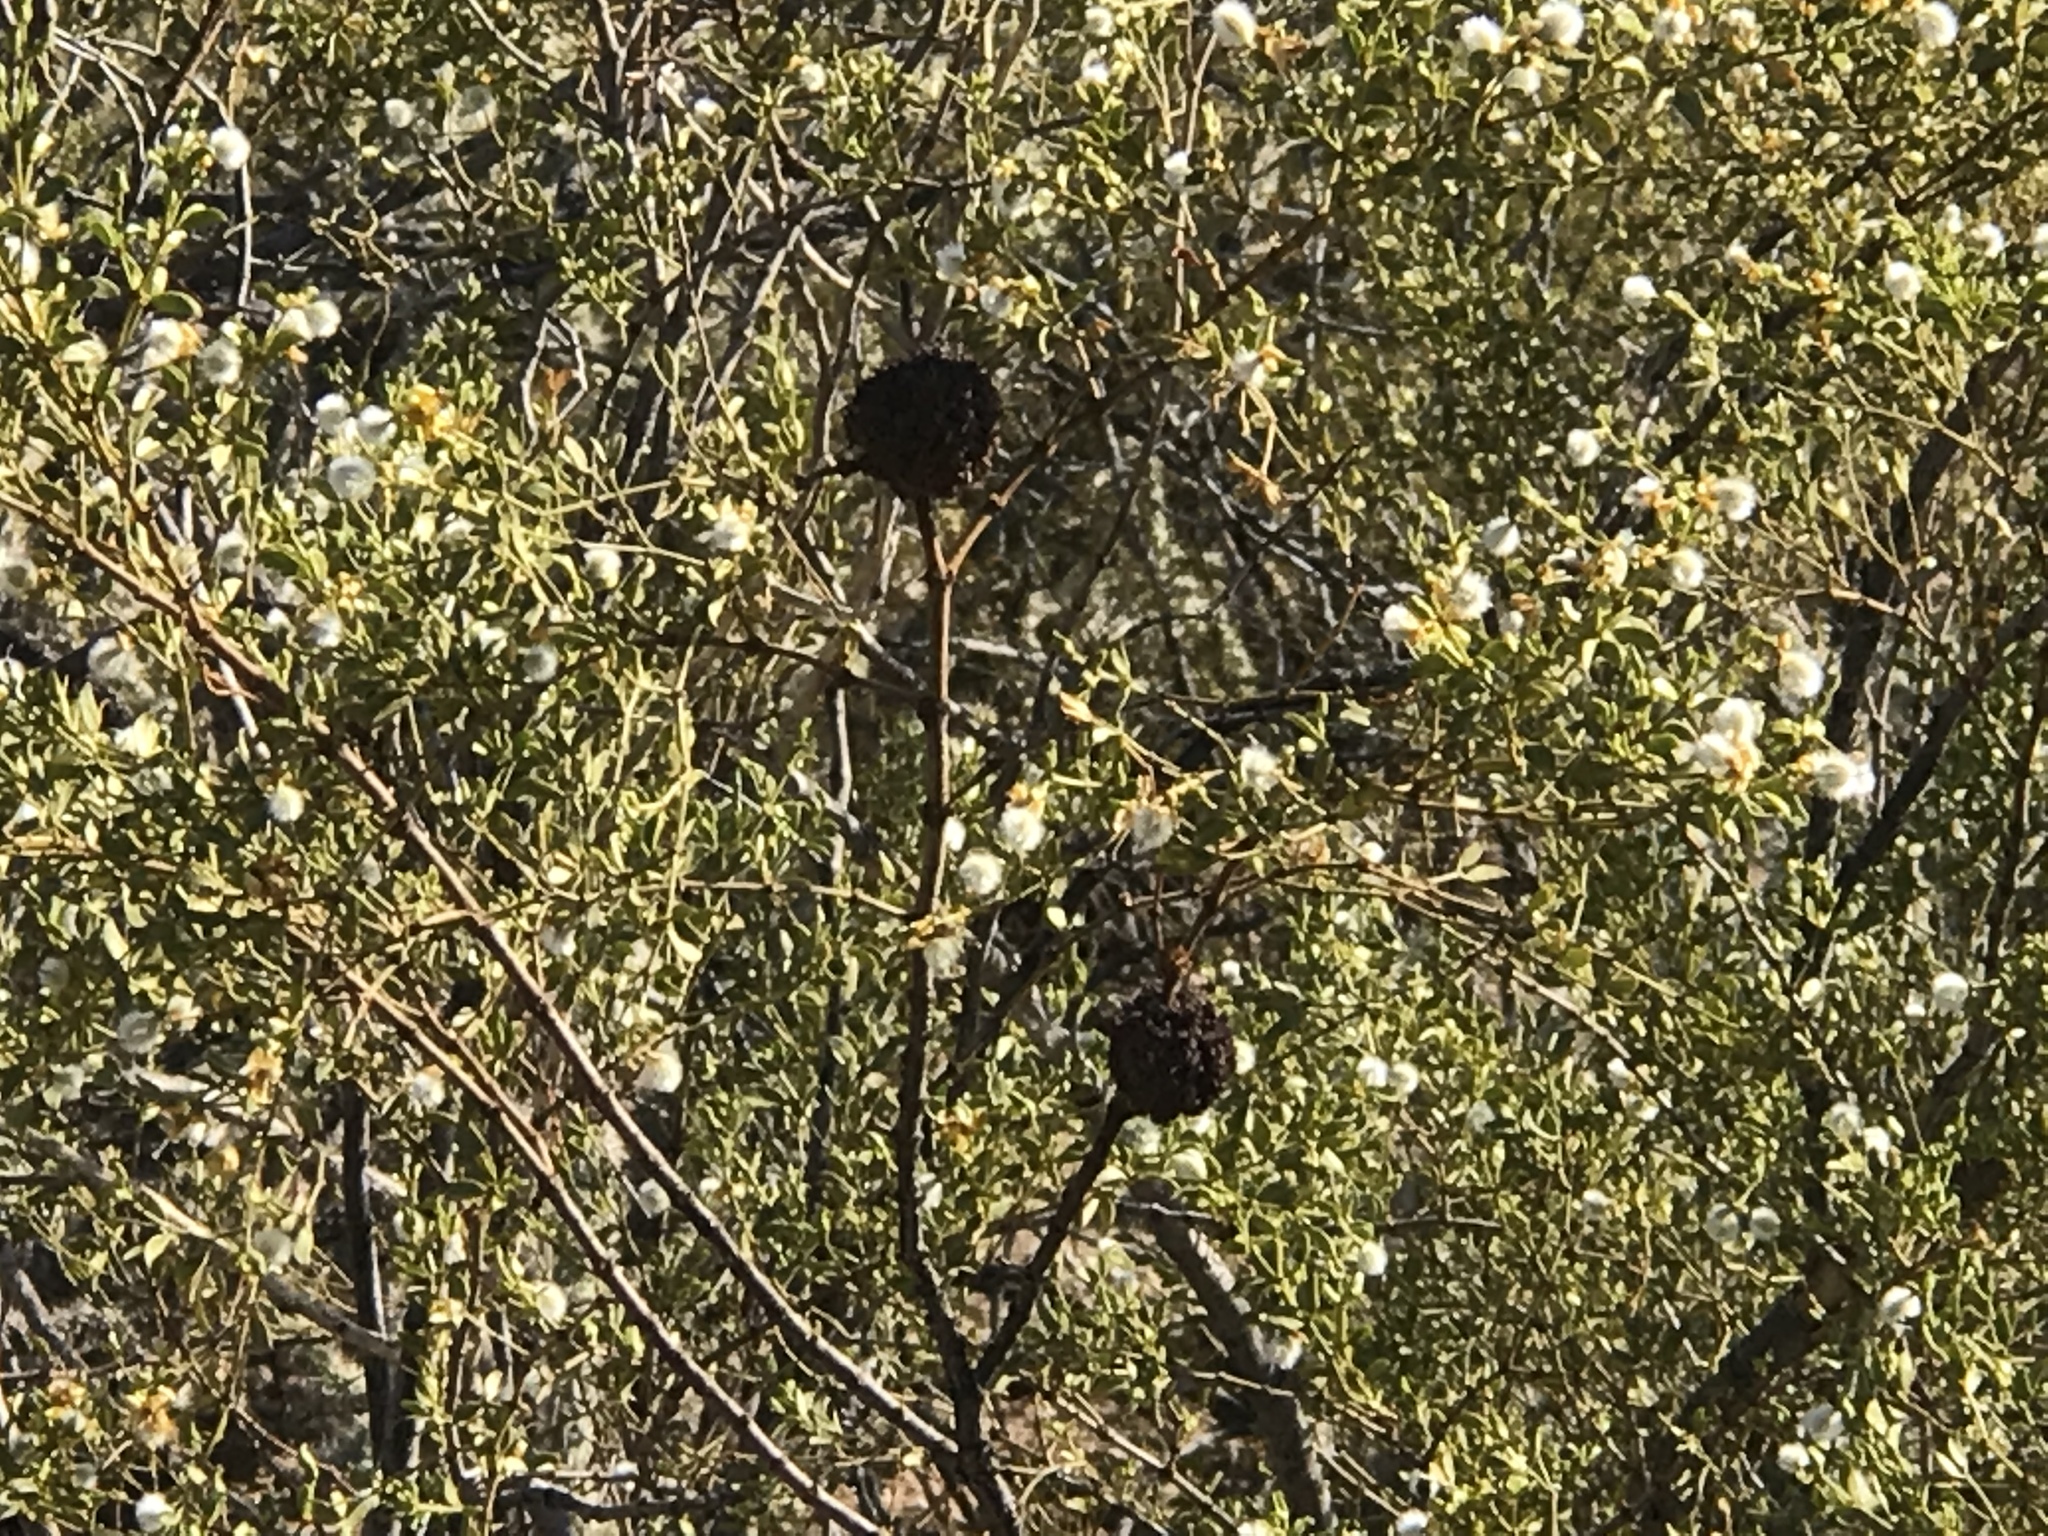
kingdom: Animalia
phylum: Arthropoda
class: Insecta
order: Diptera
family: Cecidomyiidae
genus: Asphondylia
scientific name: Asphondylia auripila
